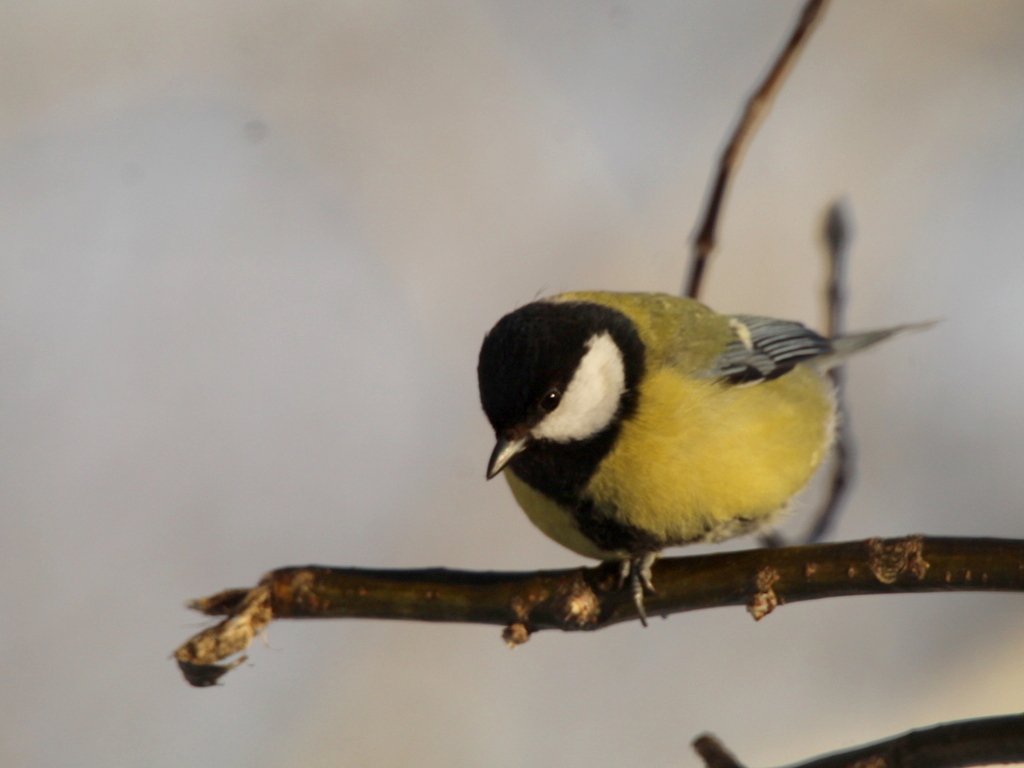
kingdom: Animalia
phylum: Chordata
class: Aves
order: Passeriformes
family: Paridae
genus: Parus
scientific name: Parus major
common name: Great tit
